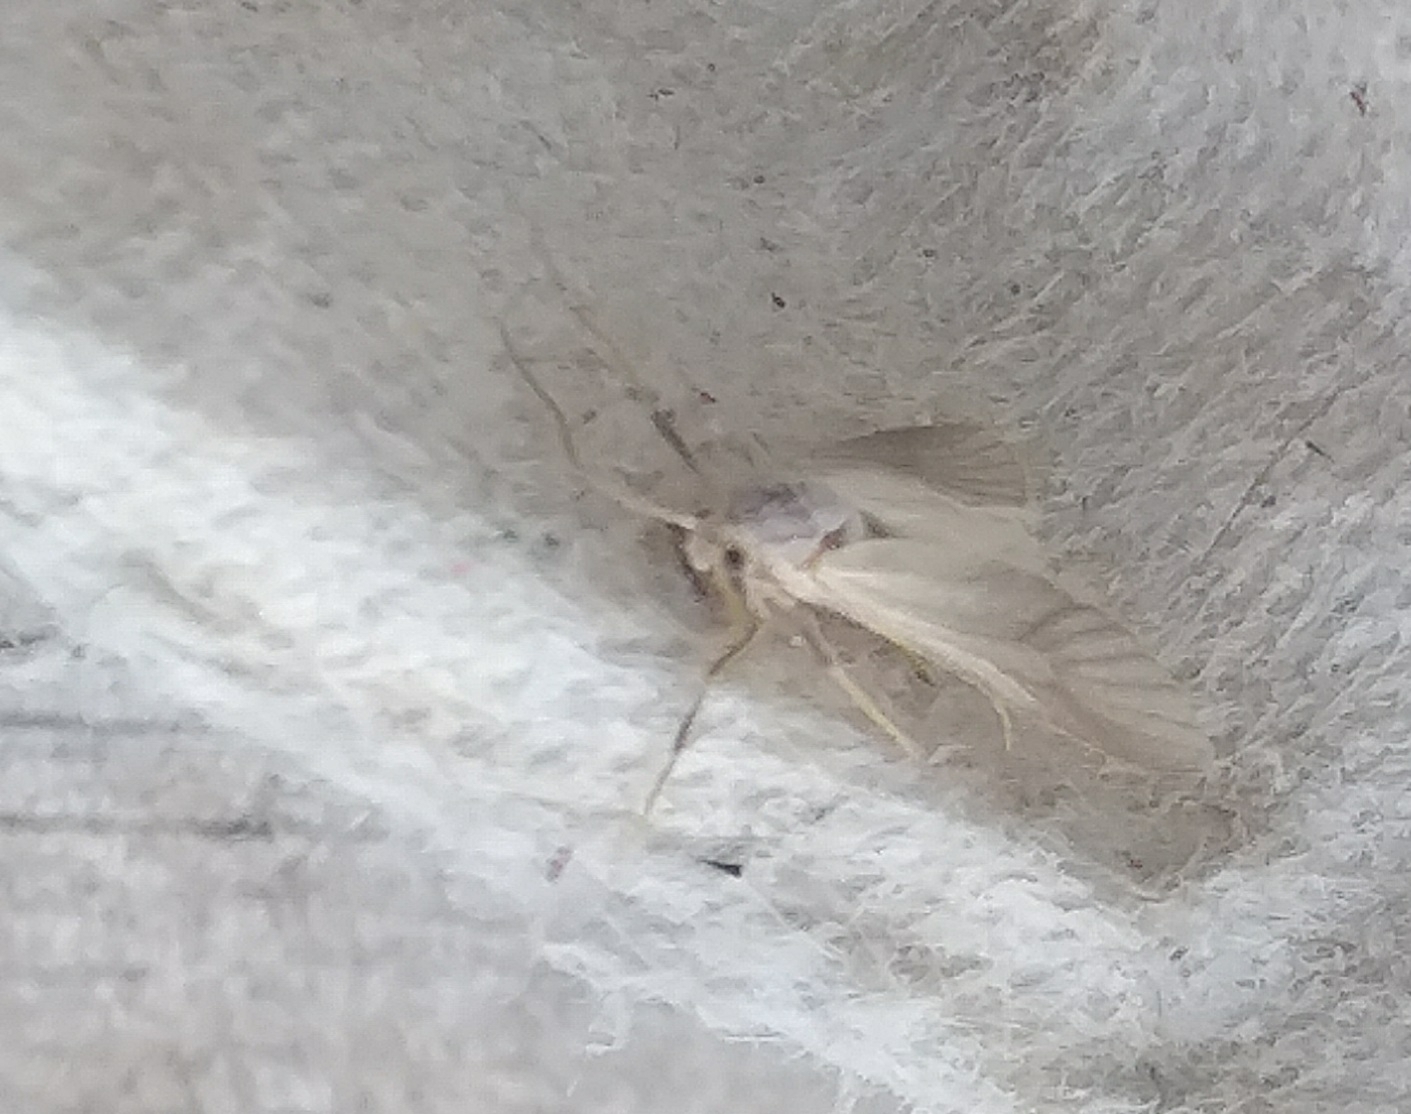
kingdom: Animalia
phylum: Arthropoda
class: Insecta
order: Lepidoptera
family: Crambidae
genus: Acentria
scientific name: Acentria ephemerella
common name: European water moth
